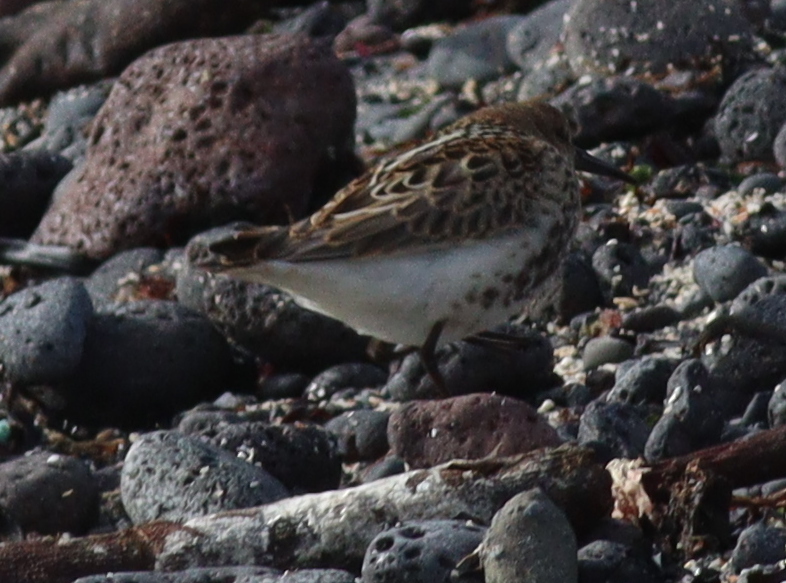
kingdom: Animalia
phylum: Chordata
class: Aves
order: Charadriiformes
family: Scolopacidae
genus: Calidris
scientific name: Calidris alpina
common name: Dunlin
